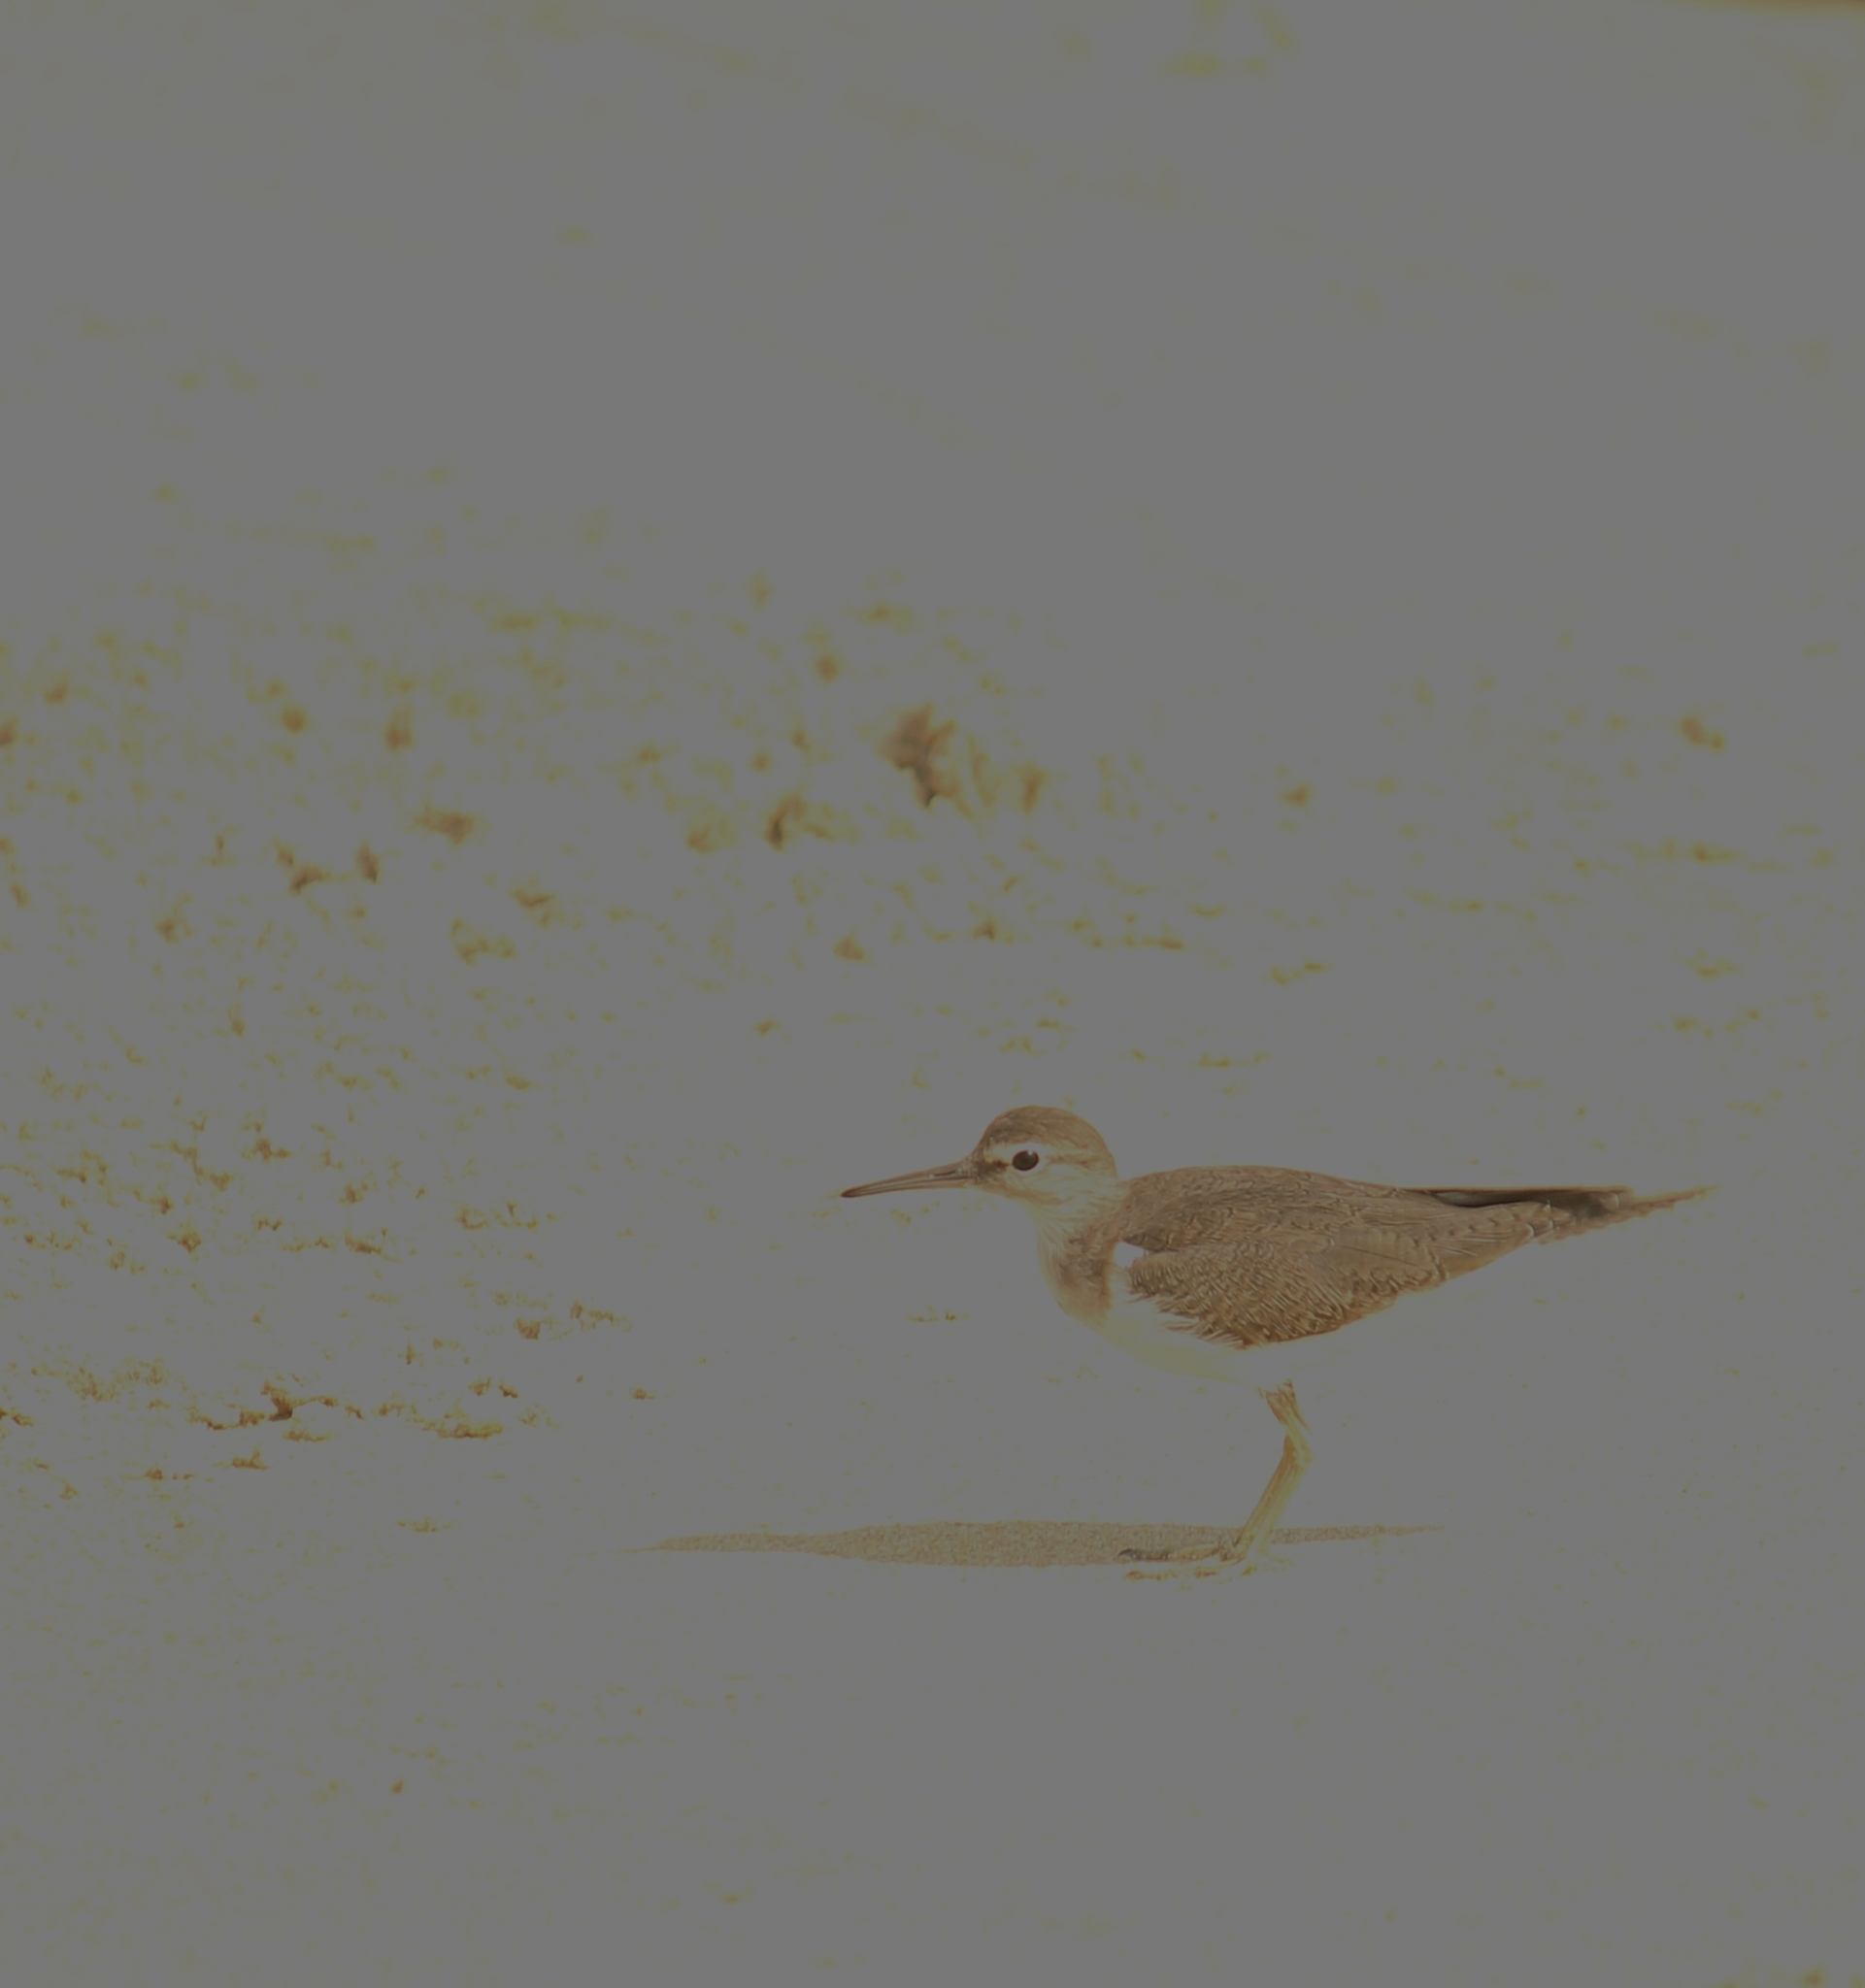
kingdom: Animalia
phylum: Chordata
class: Aves
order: Charadriiformes
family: Scolopacidae
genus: Actitis
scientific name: Actitis hypoleucos
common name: Common sandpiper
